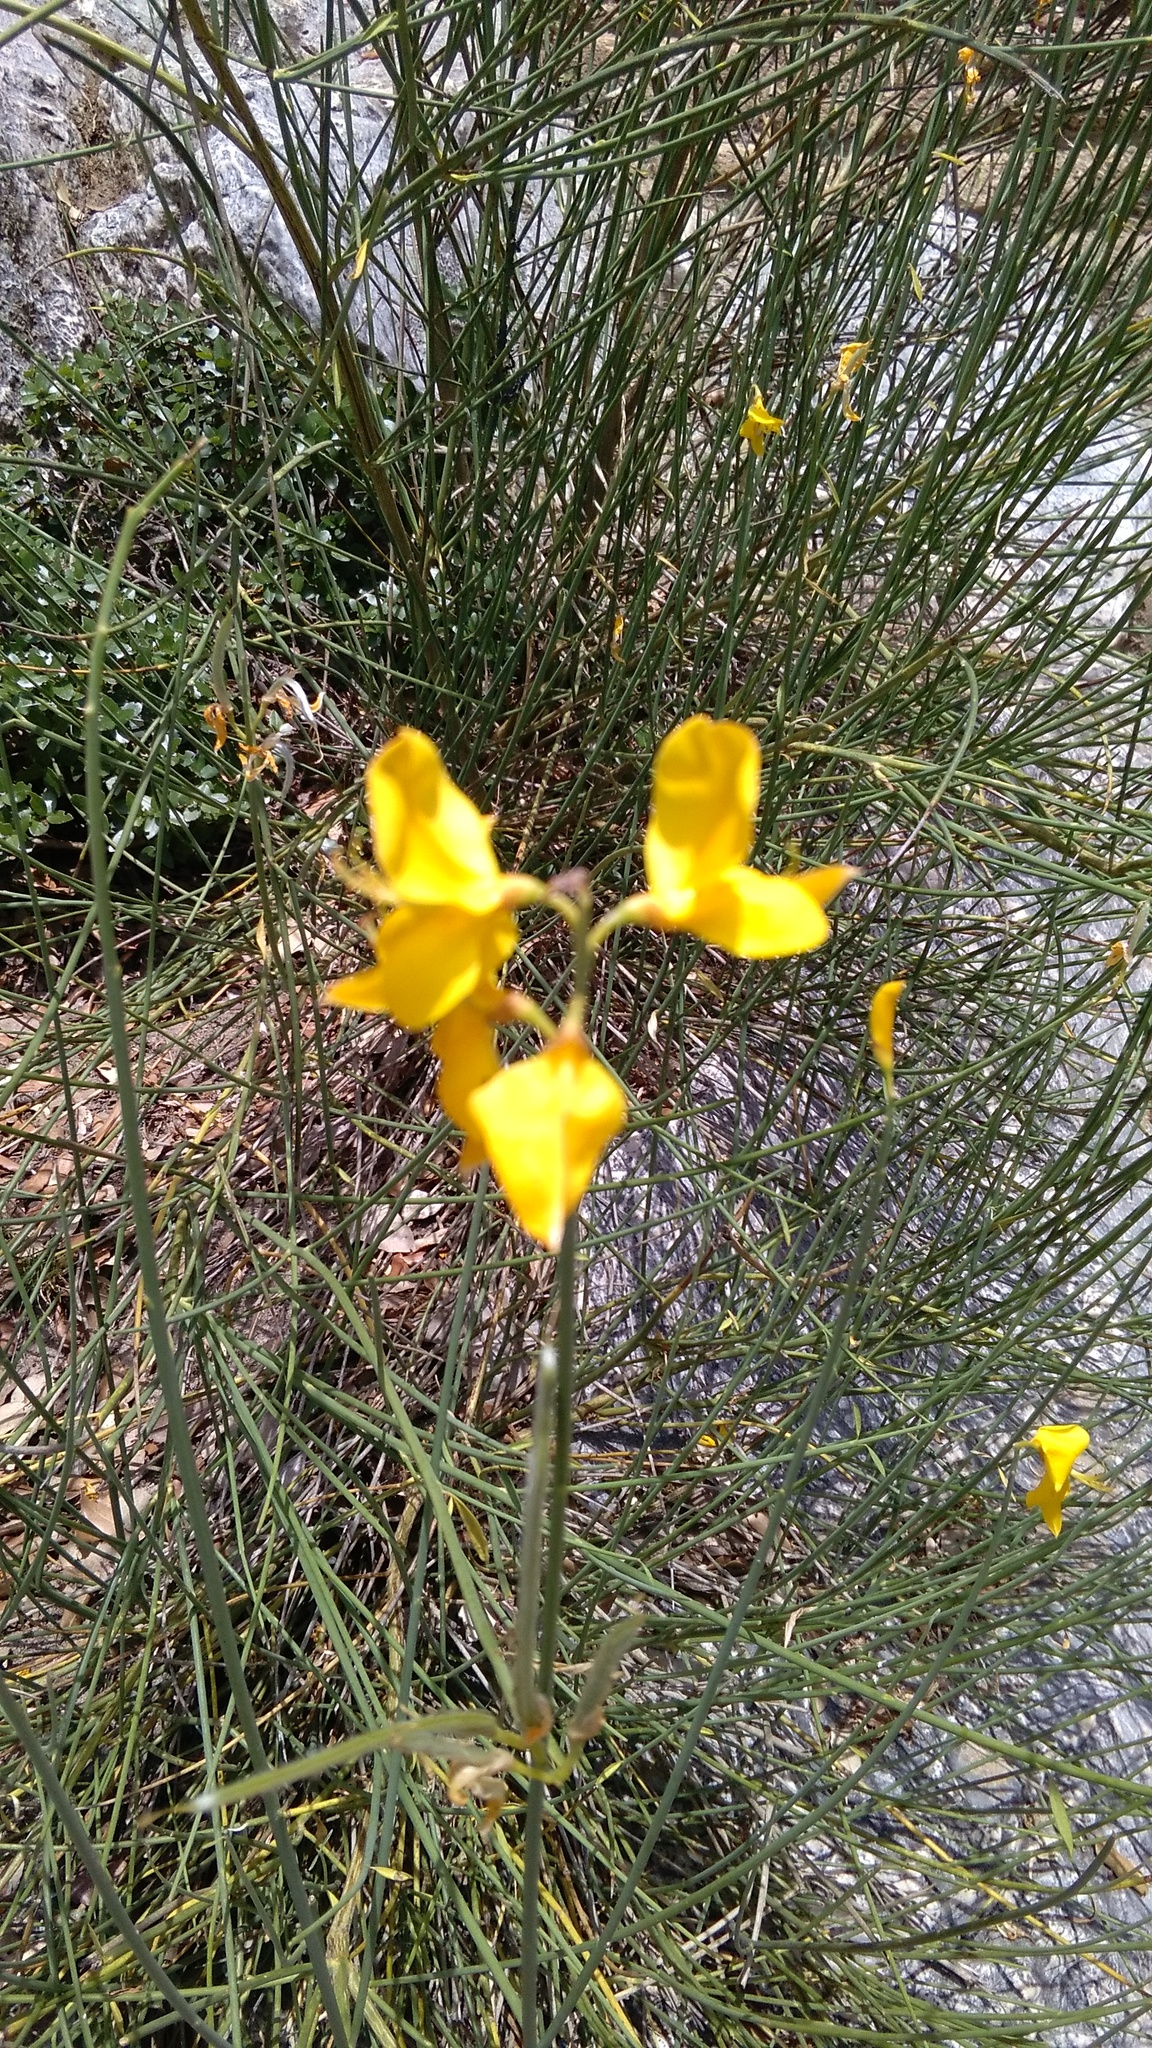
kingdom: Plantae
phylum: Tracheophyta
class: Magnoliopsida
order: Fabales
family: Fabaceae
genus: Spartium
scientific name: Spartium junceum
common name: Spanish broom
